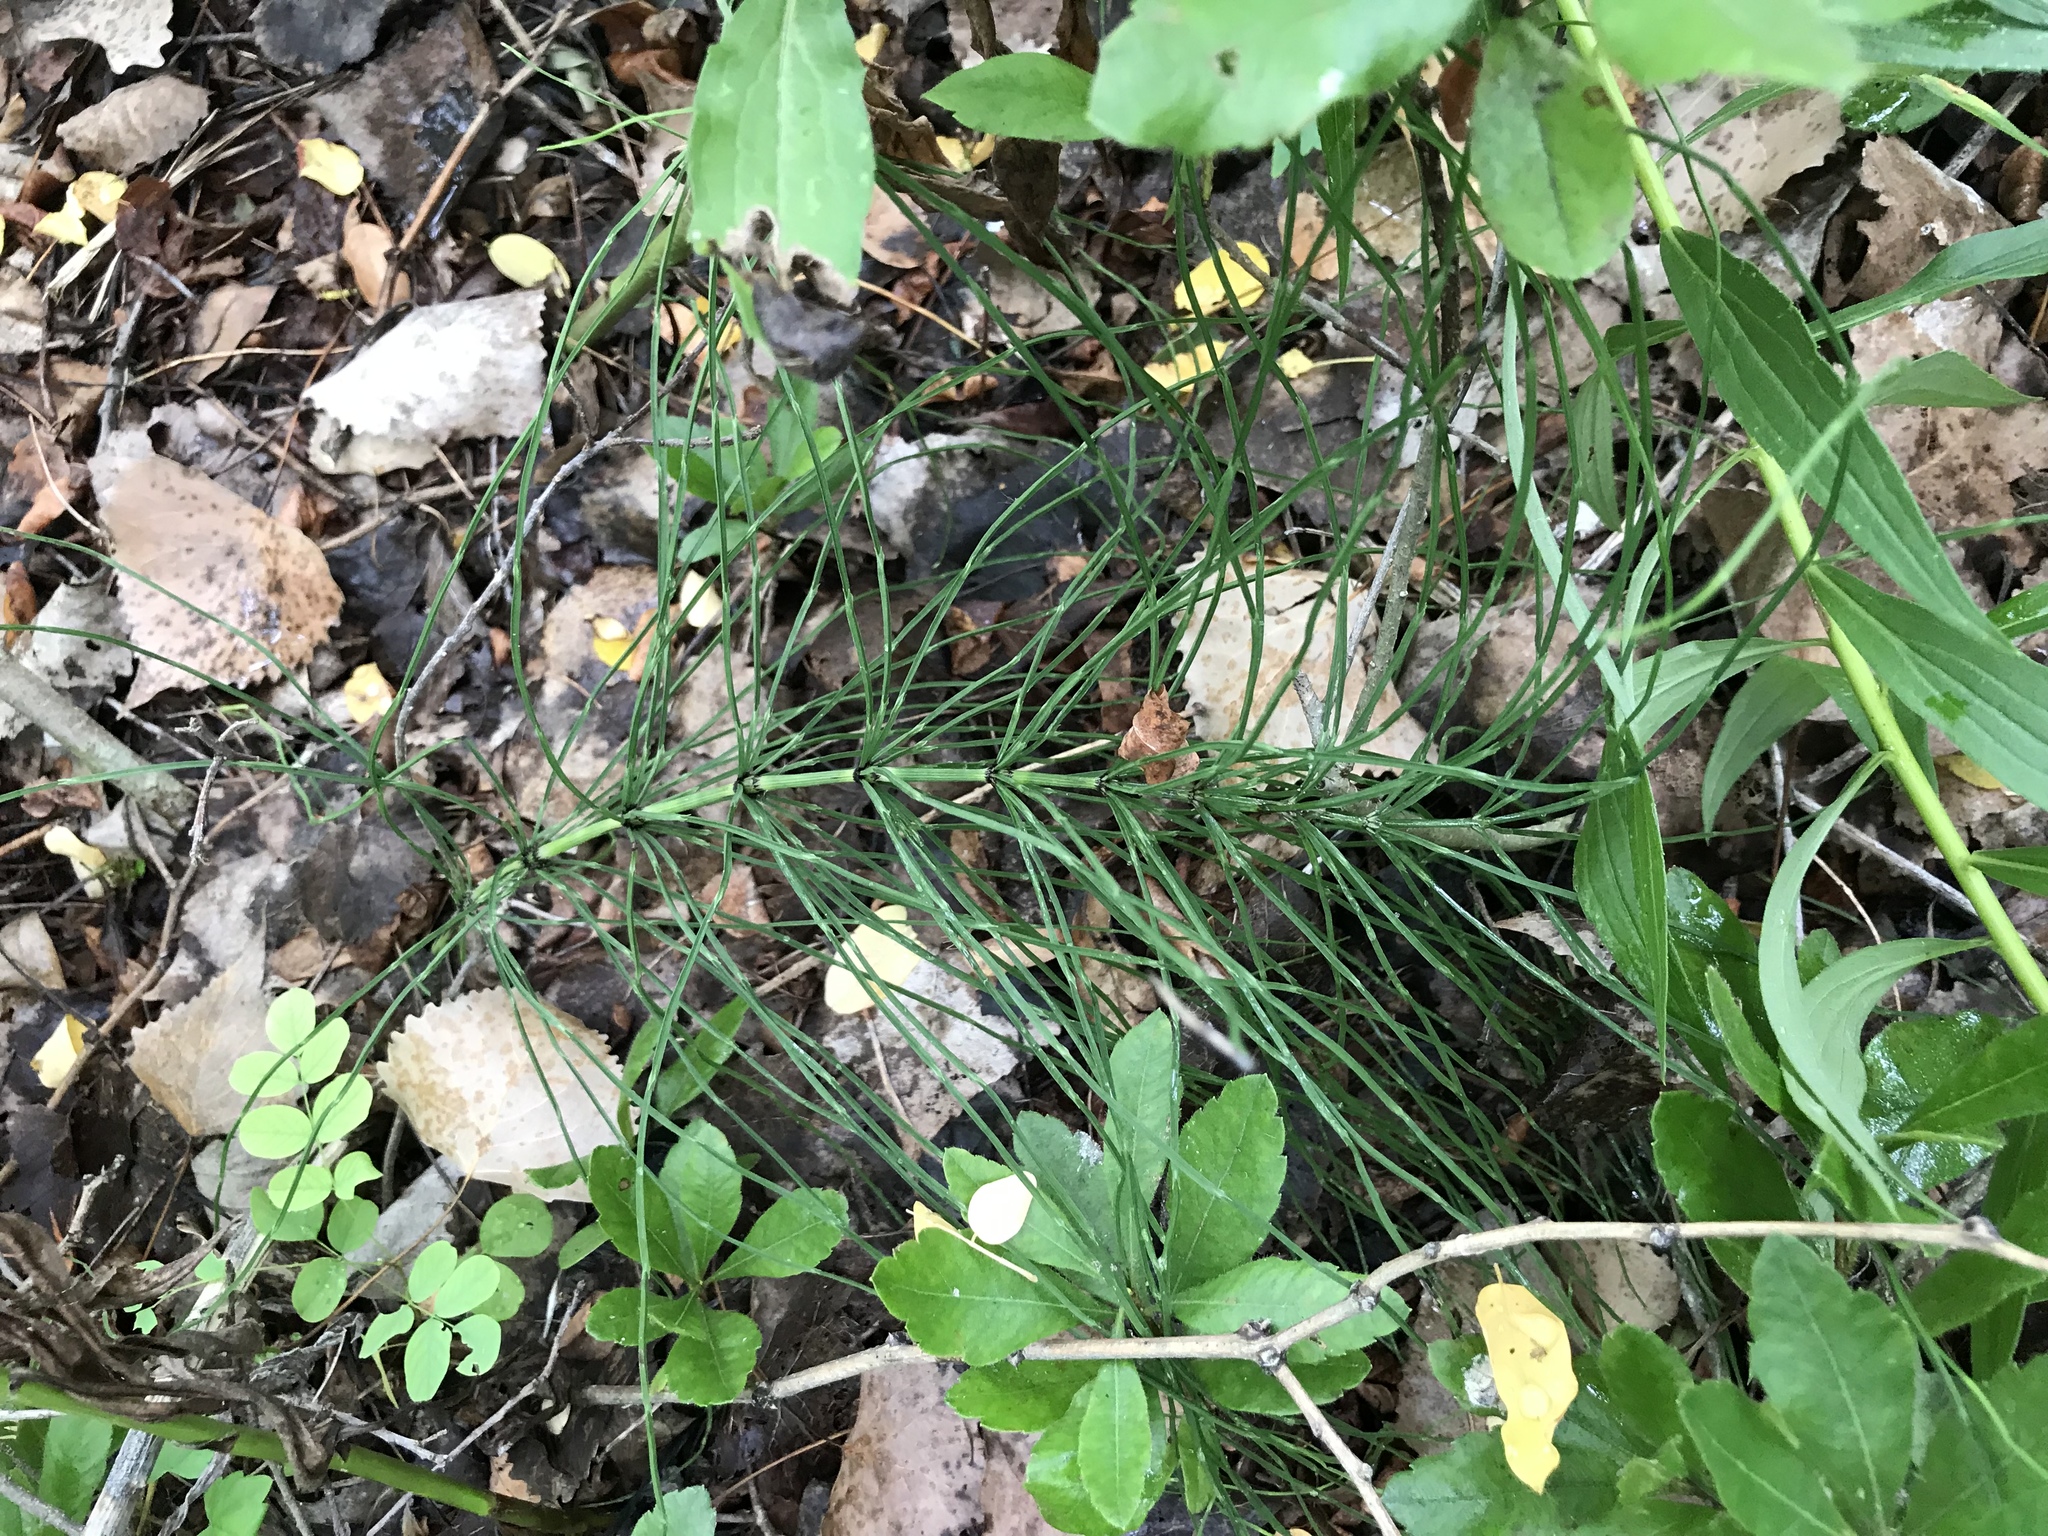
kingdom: Plantae
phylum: Tracheophyta
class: Polypodiopsida
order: Equisetales
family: Equisetaceae
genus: Equisetum
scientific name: Equisetum arvense
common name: Field horsetail
